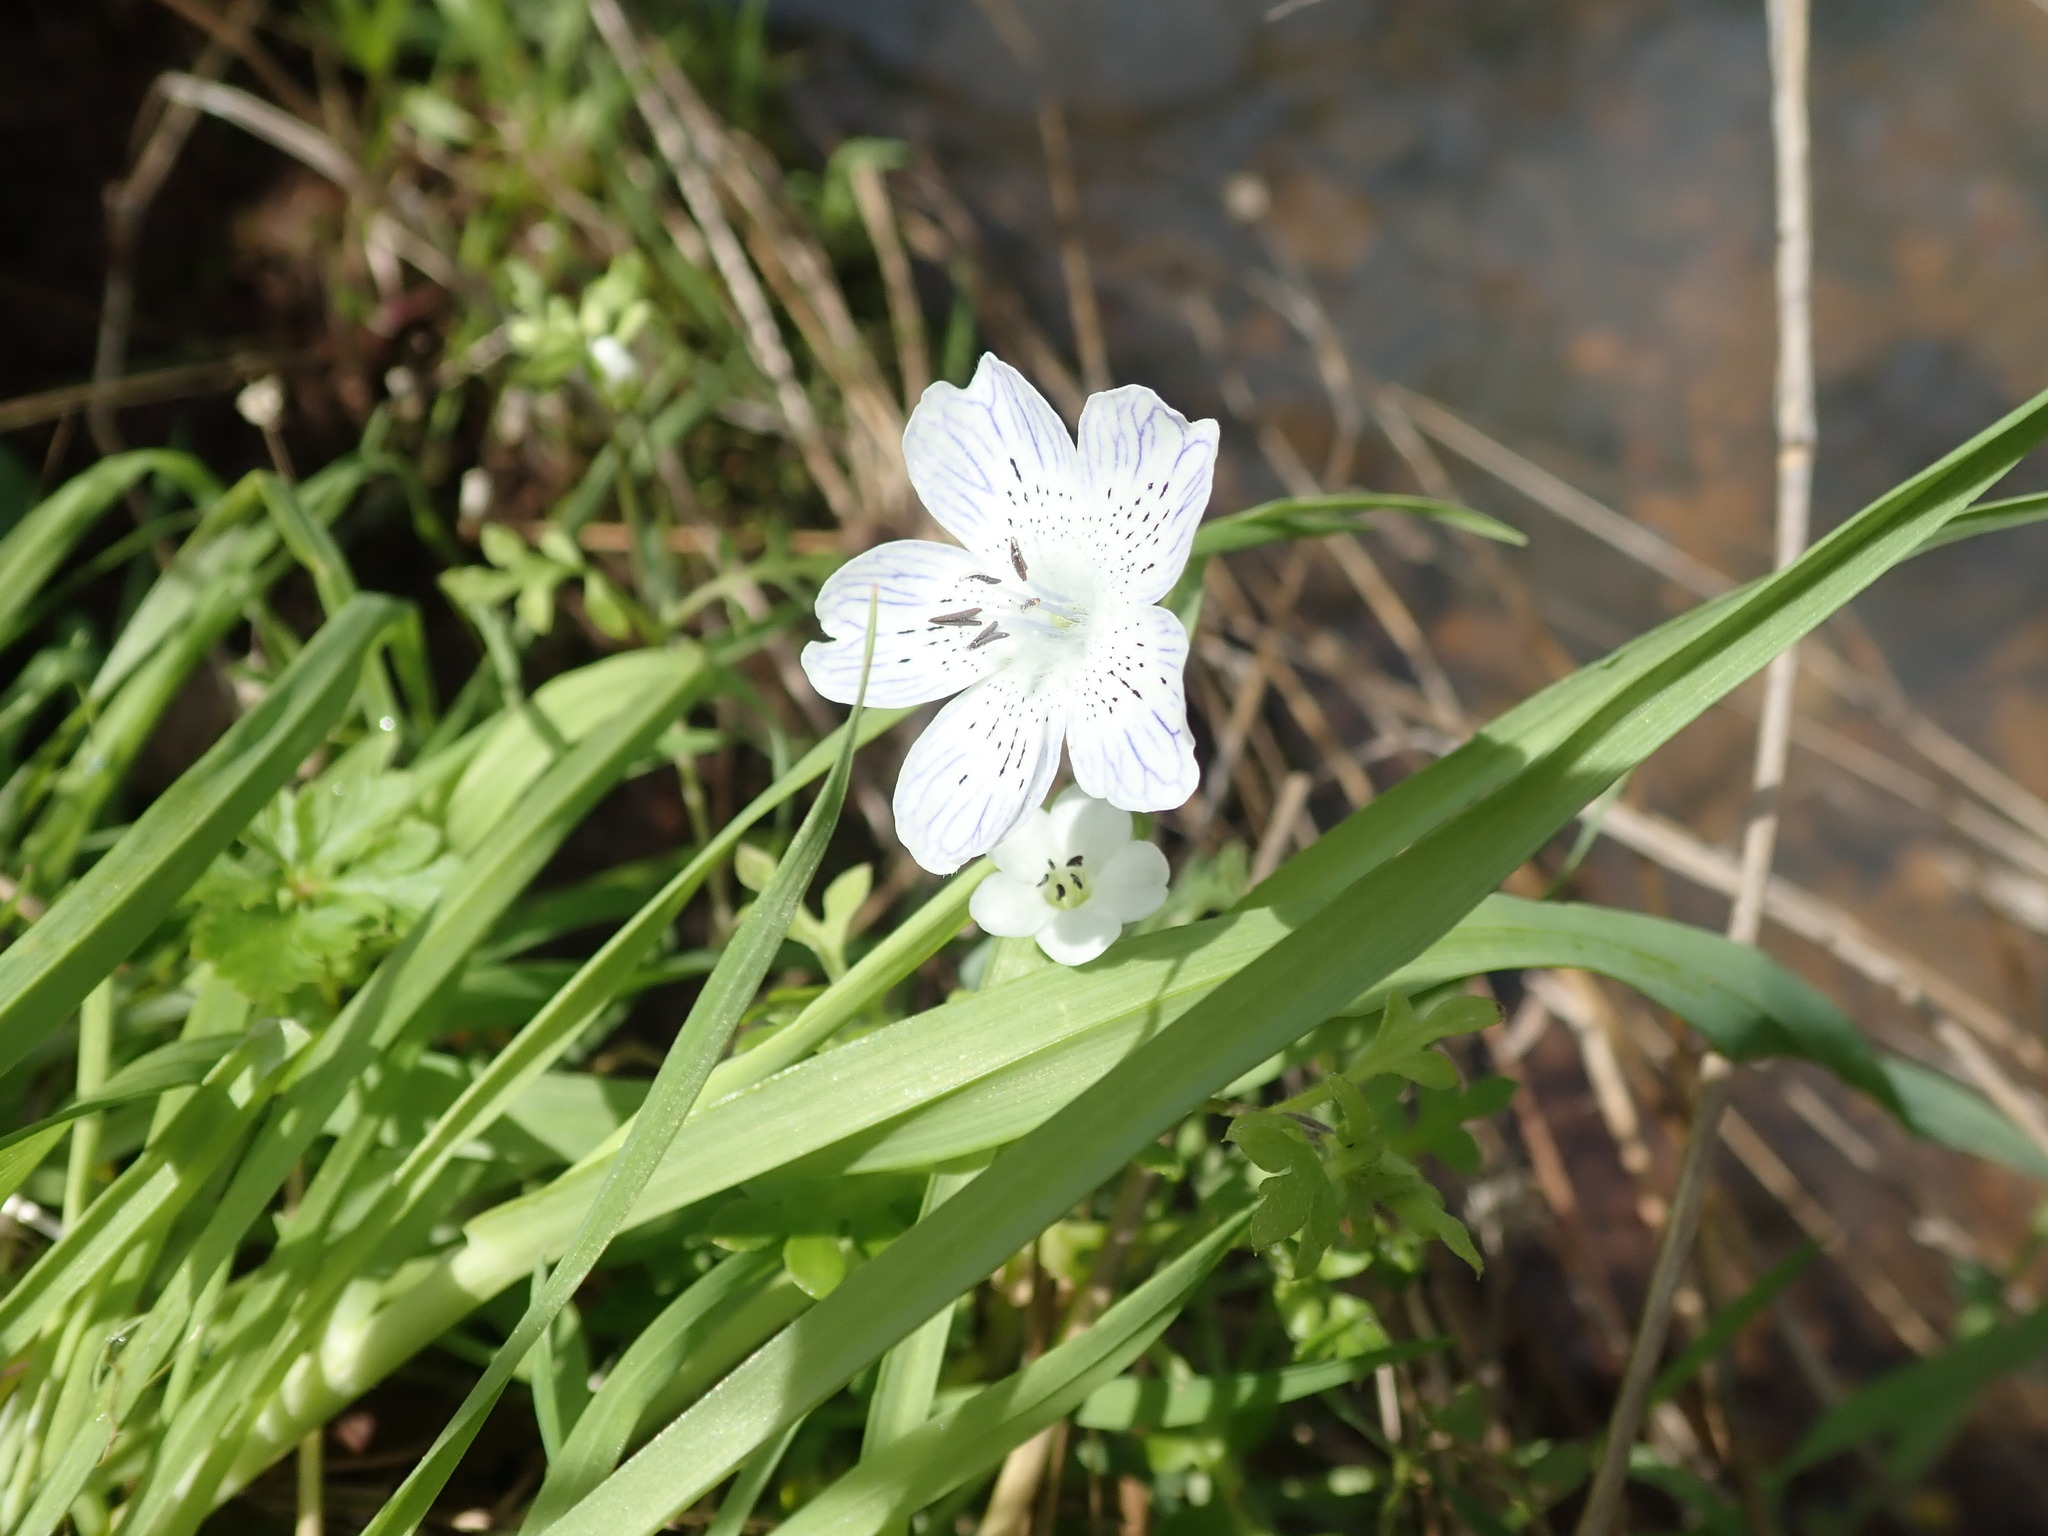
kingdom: Plantae
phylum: Tracheophyta
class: Magnoliopsida
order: Boraginales
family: Hydrophyllaceae
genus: Nemophila
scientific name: Nemophila menziesii
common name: Baby's-blue-eyes
